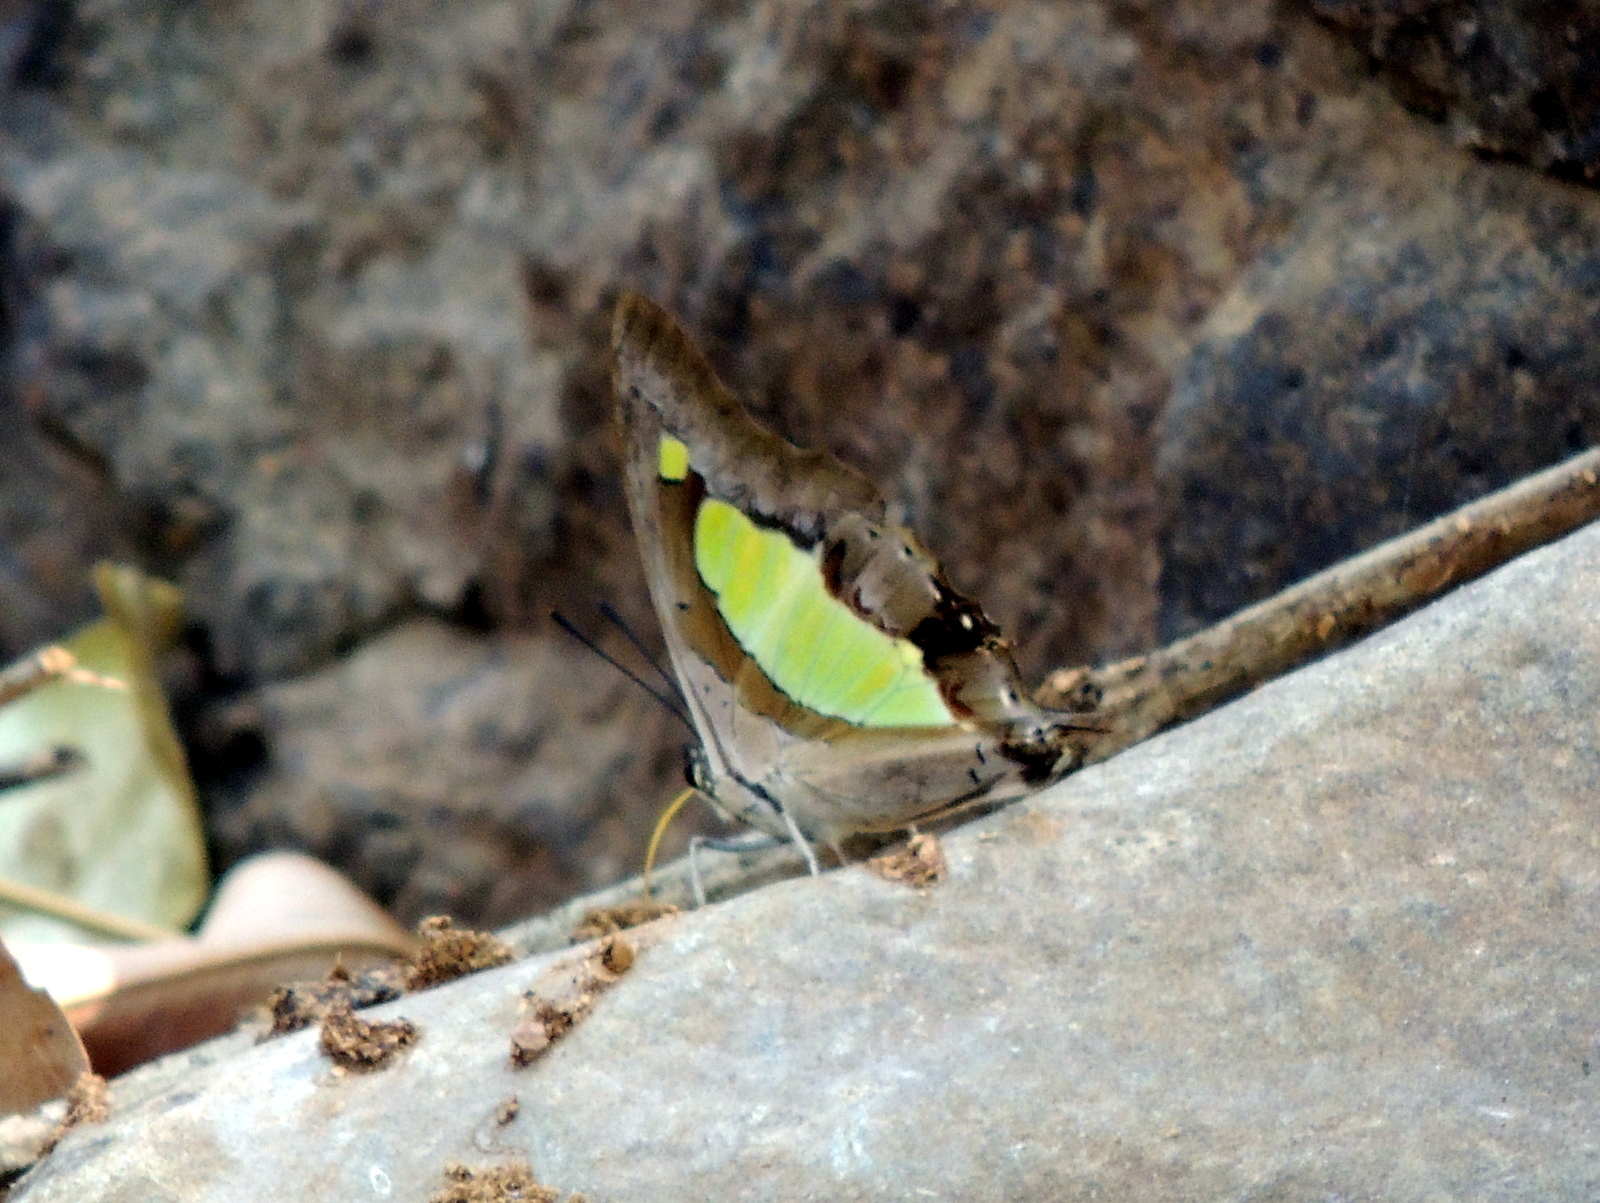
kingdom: Animalia
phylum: Arthropoda
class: Insecta
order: Lepidoptera
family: Nymphalidae
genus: Polyura
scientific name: Polyura
